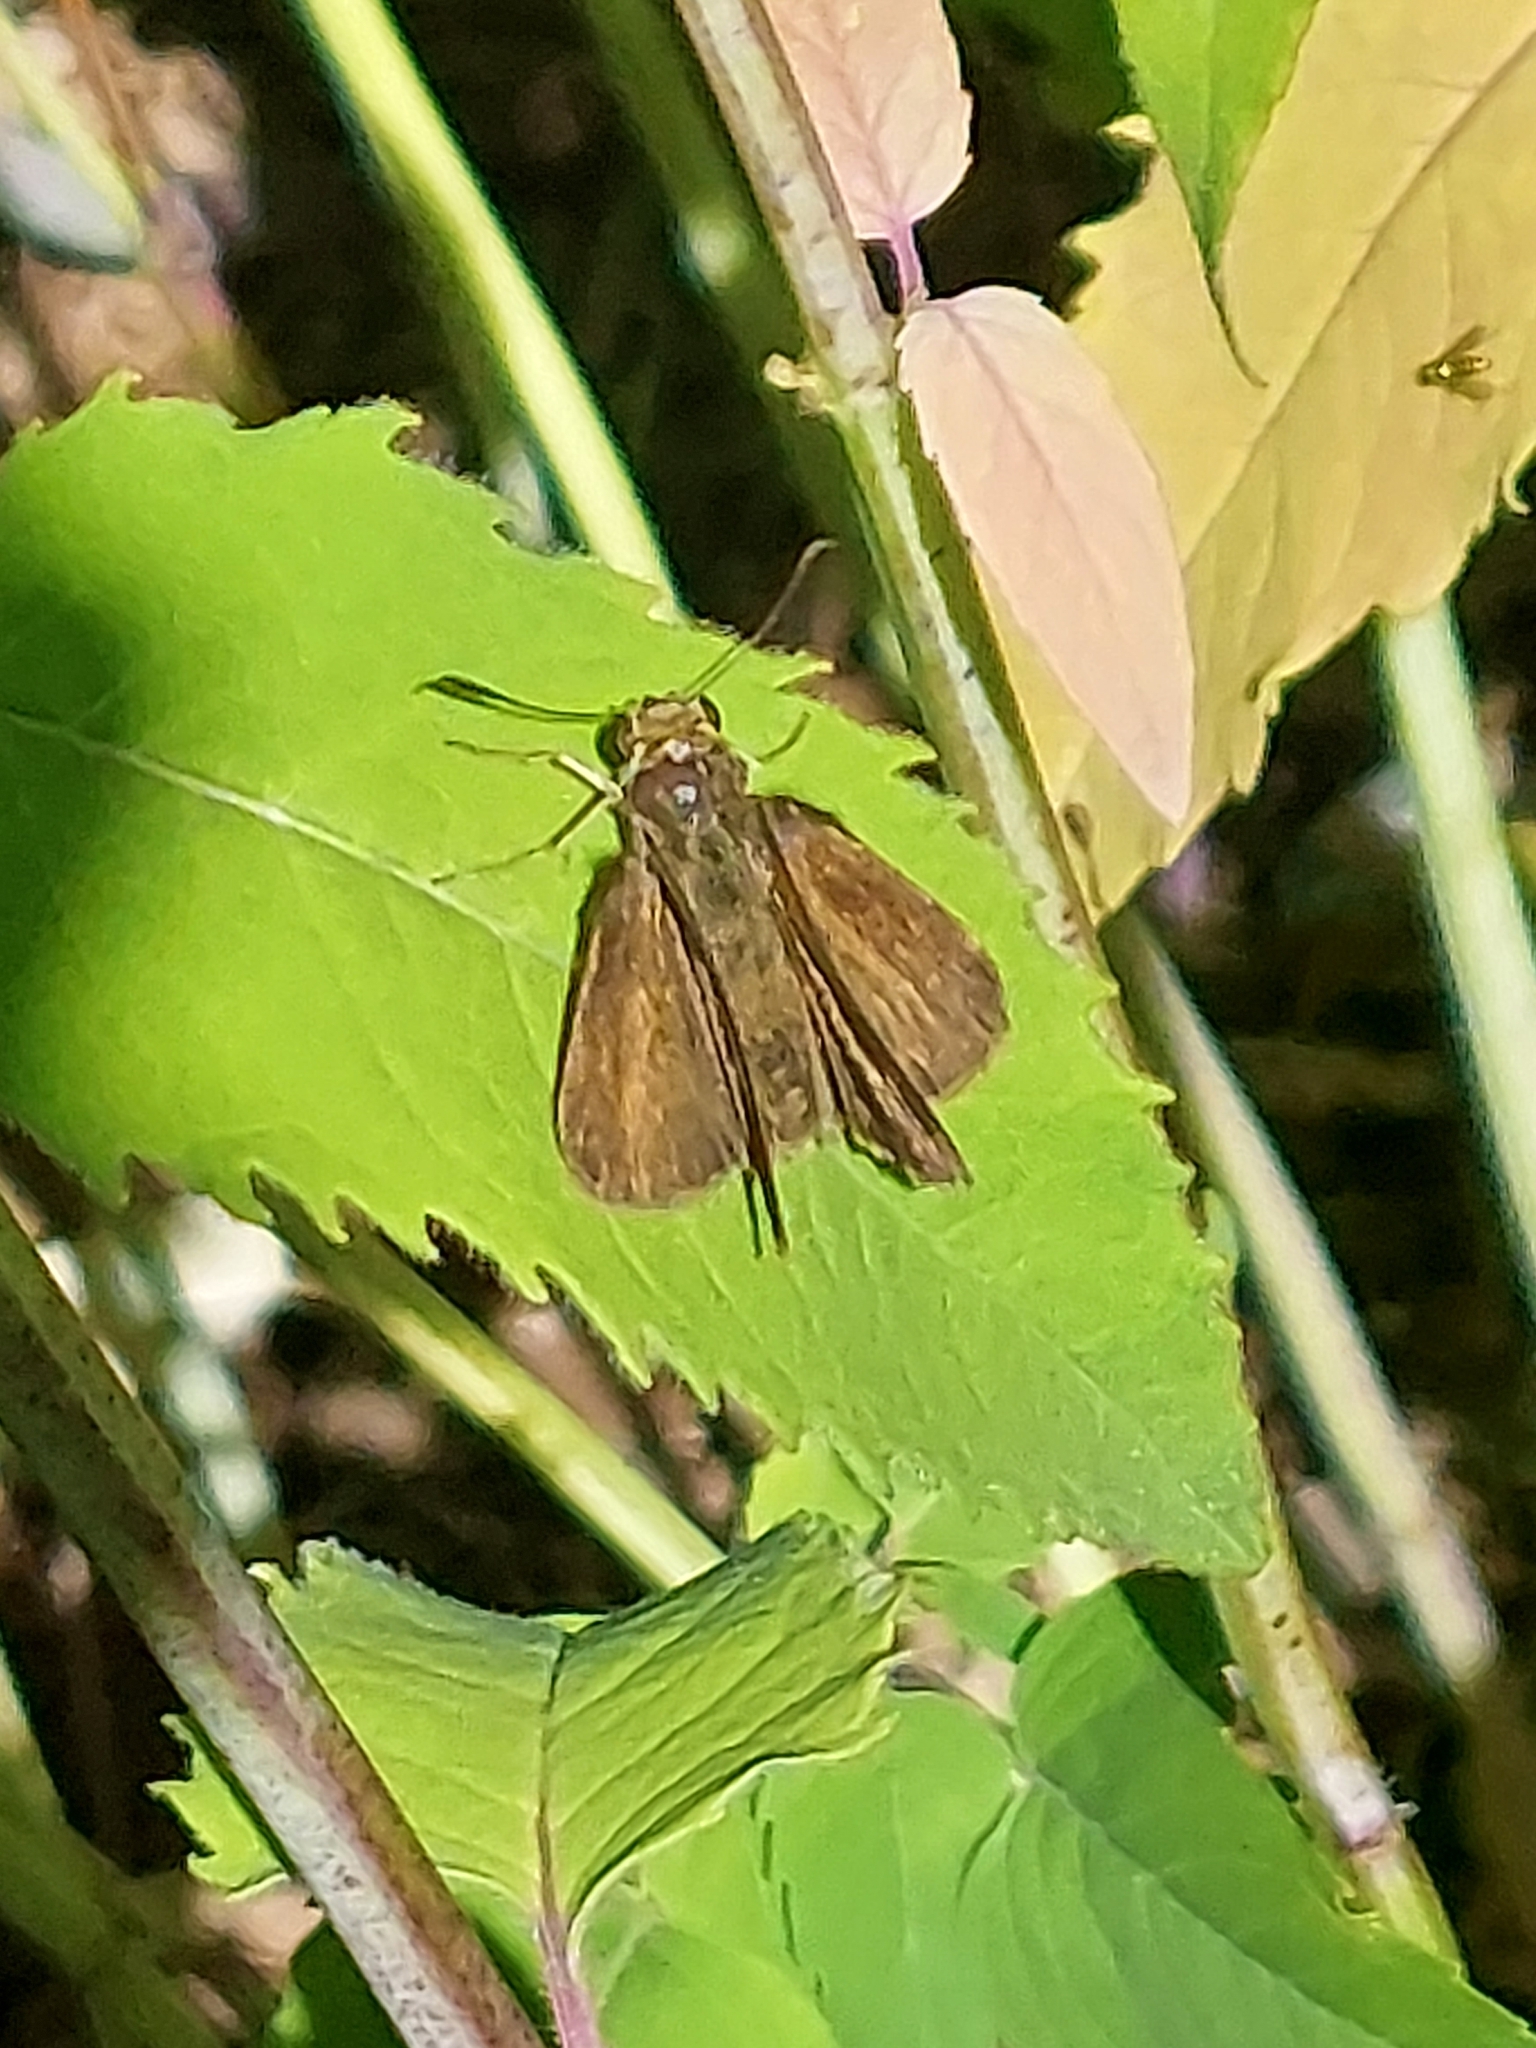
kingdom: Animalia
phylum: Arthropoda
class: Insecta
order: Lepidoptera
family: Hesperiidae
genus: Euphyes
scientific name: Euphyes vestris
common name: Dun skipper
